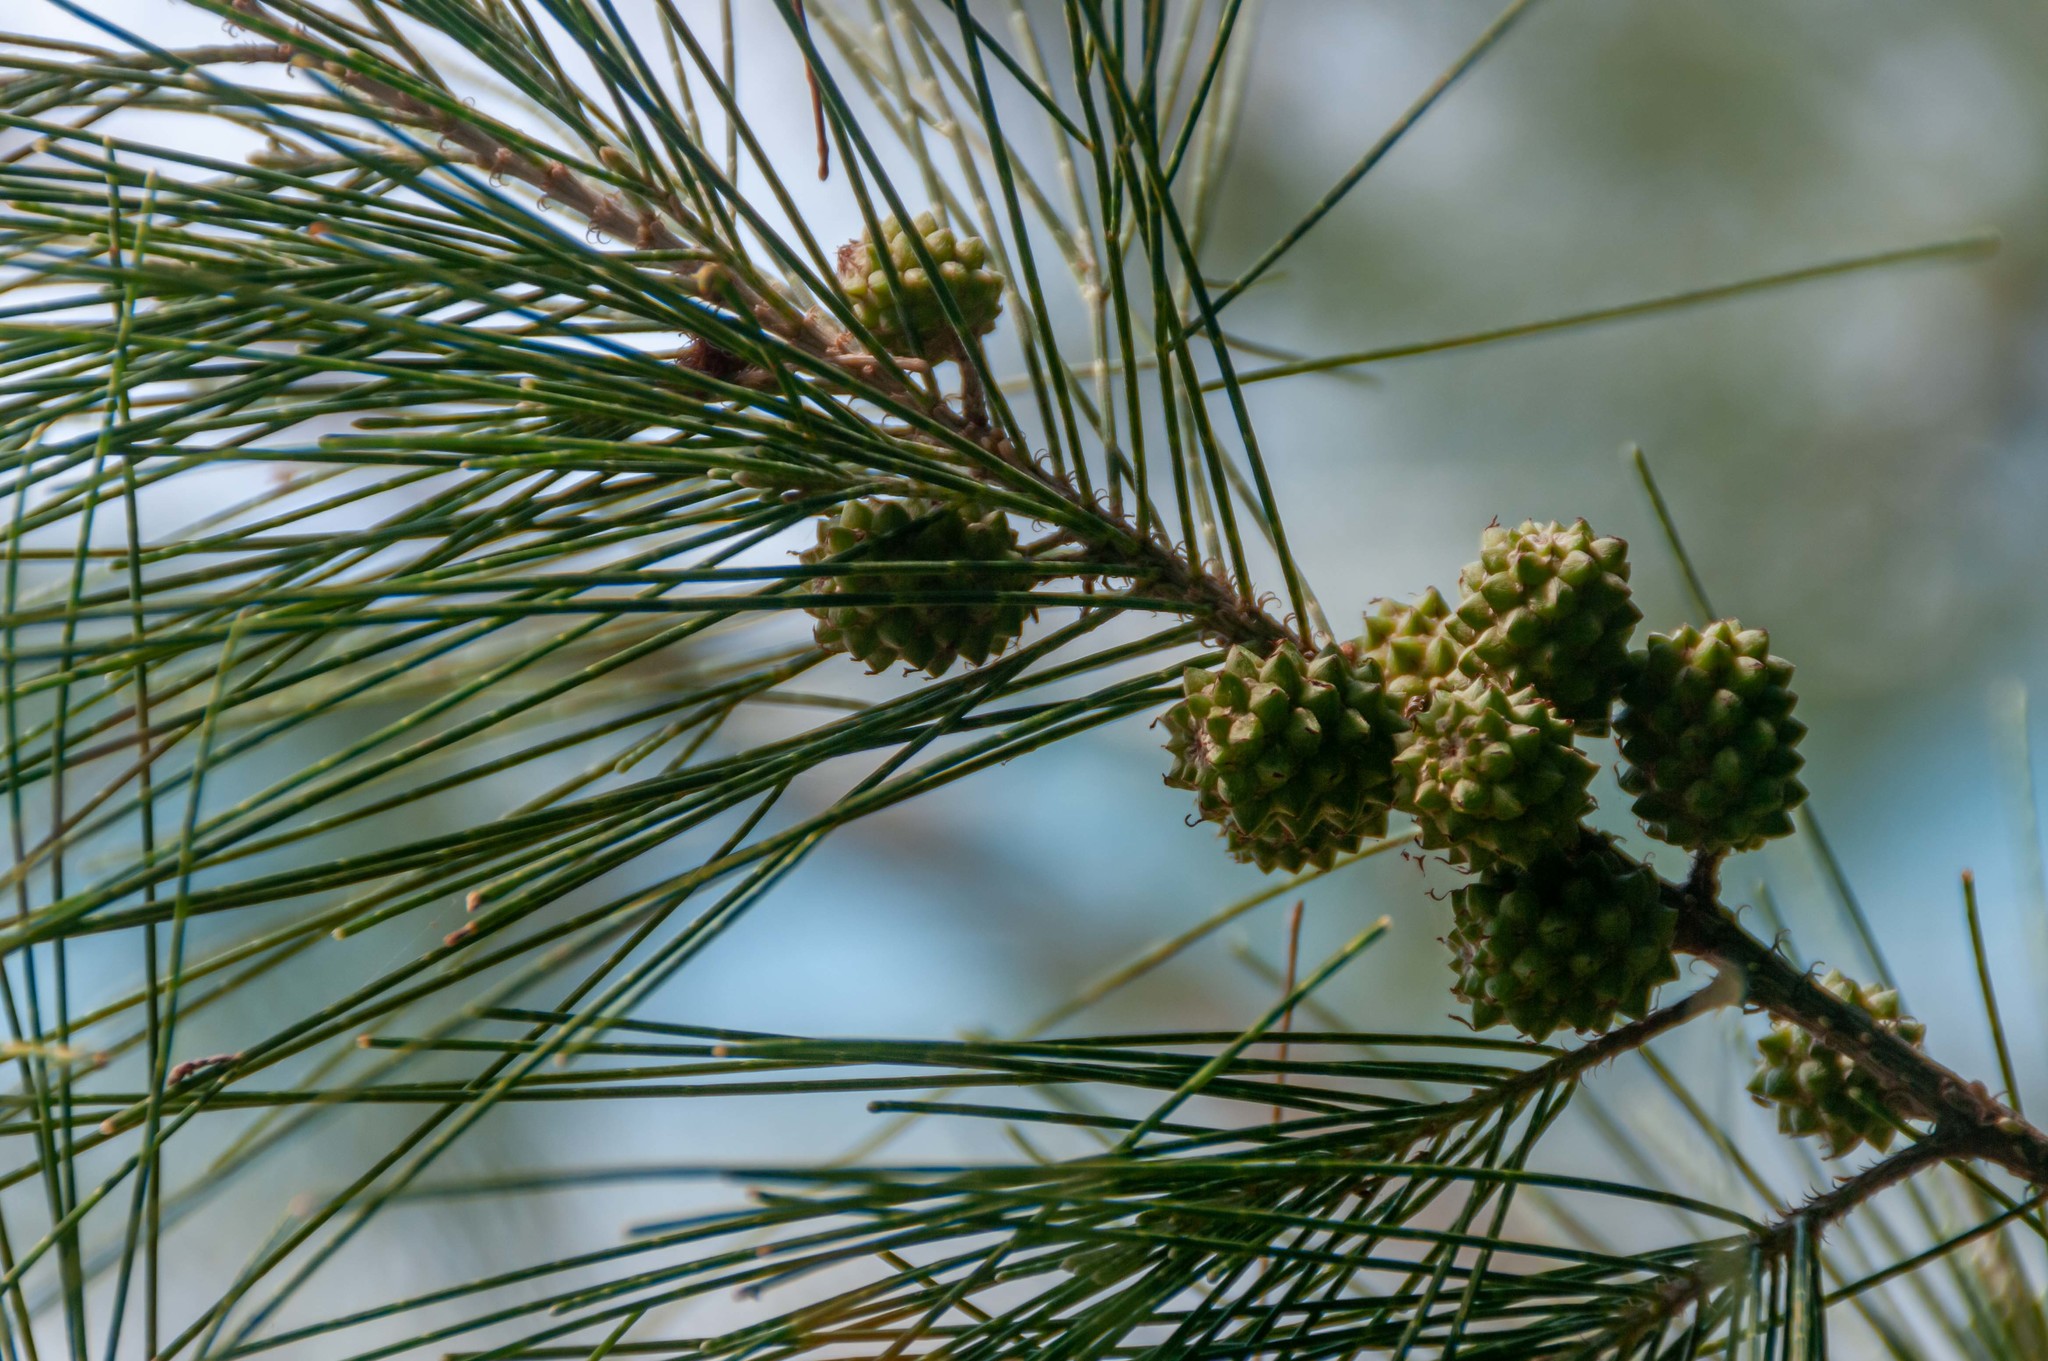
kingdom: Plantae
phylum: Tracheophyta
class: Magnoliopsida
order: Fagales
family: Casuarinaceae
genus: Casuarina
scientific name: Casuarina equisetifolia
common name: Beach sheoak
